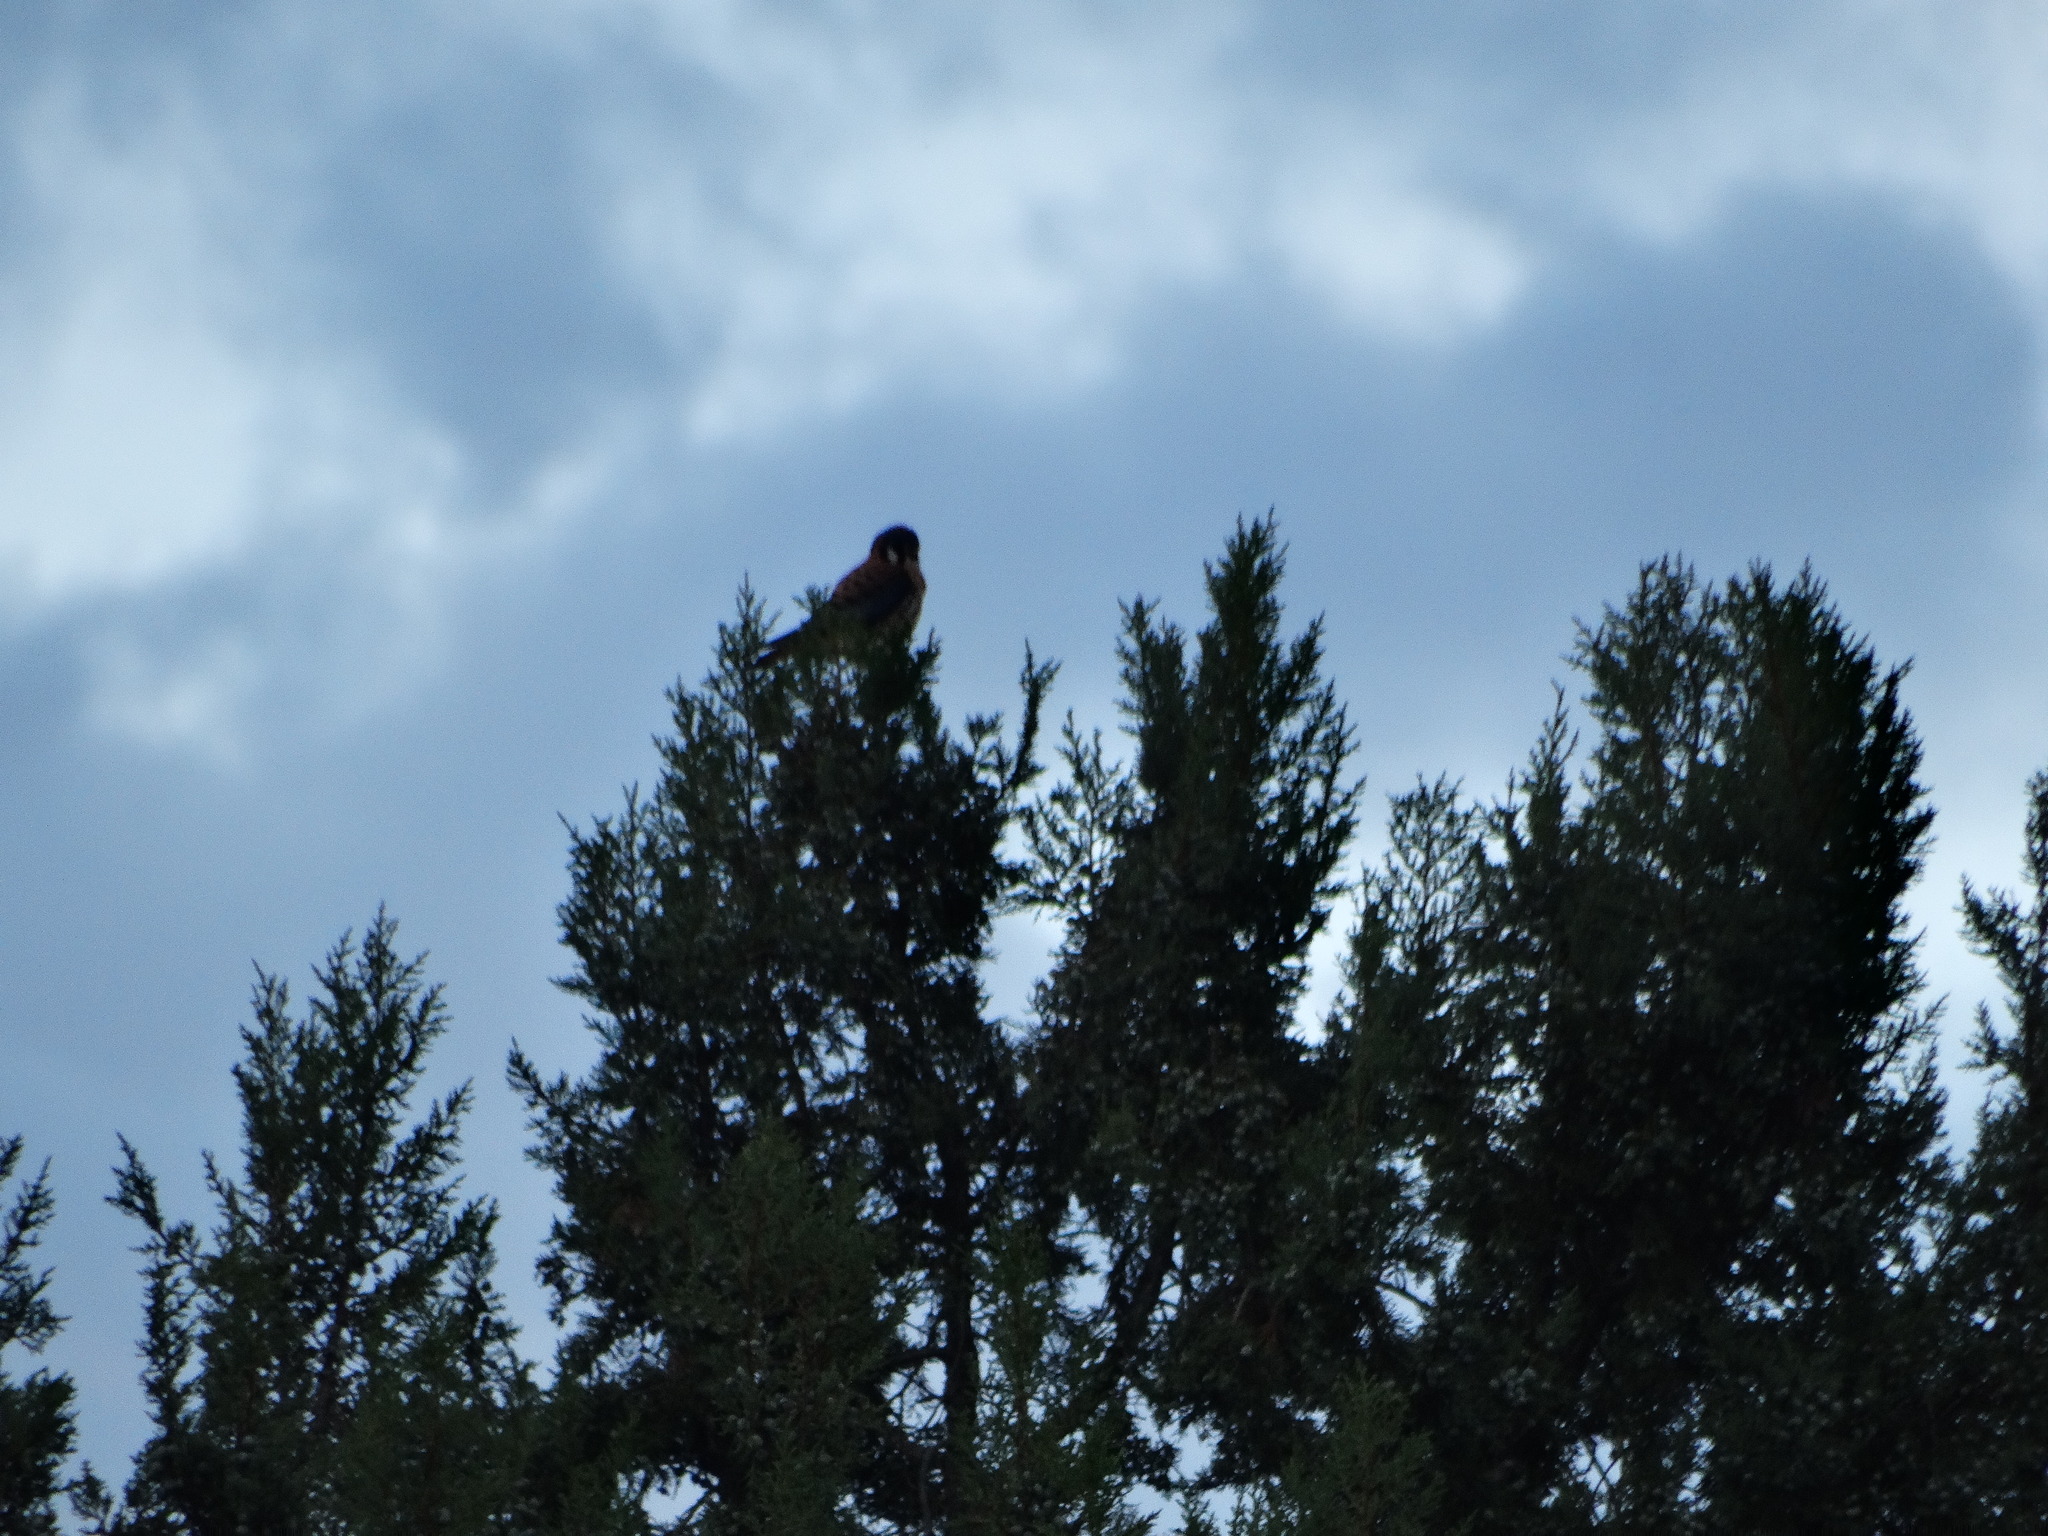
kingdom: Animalia
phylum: Chordata
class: Aves
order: Falconiformes
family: Falconidae
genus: Falco
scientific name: Falco sparverius
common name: American kestrel
